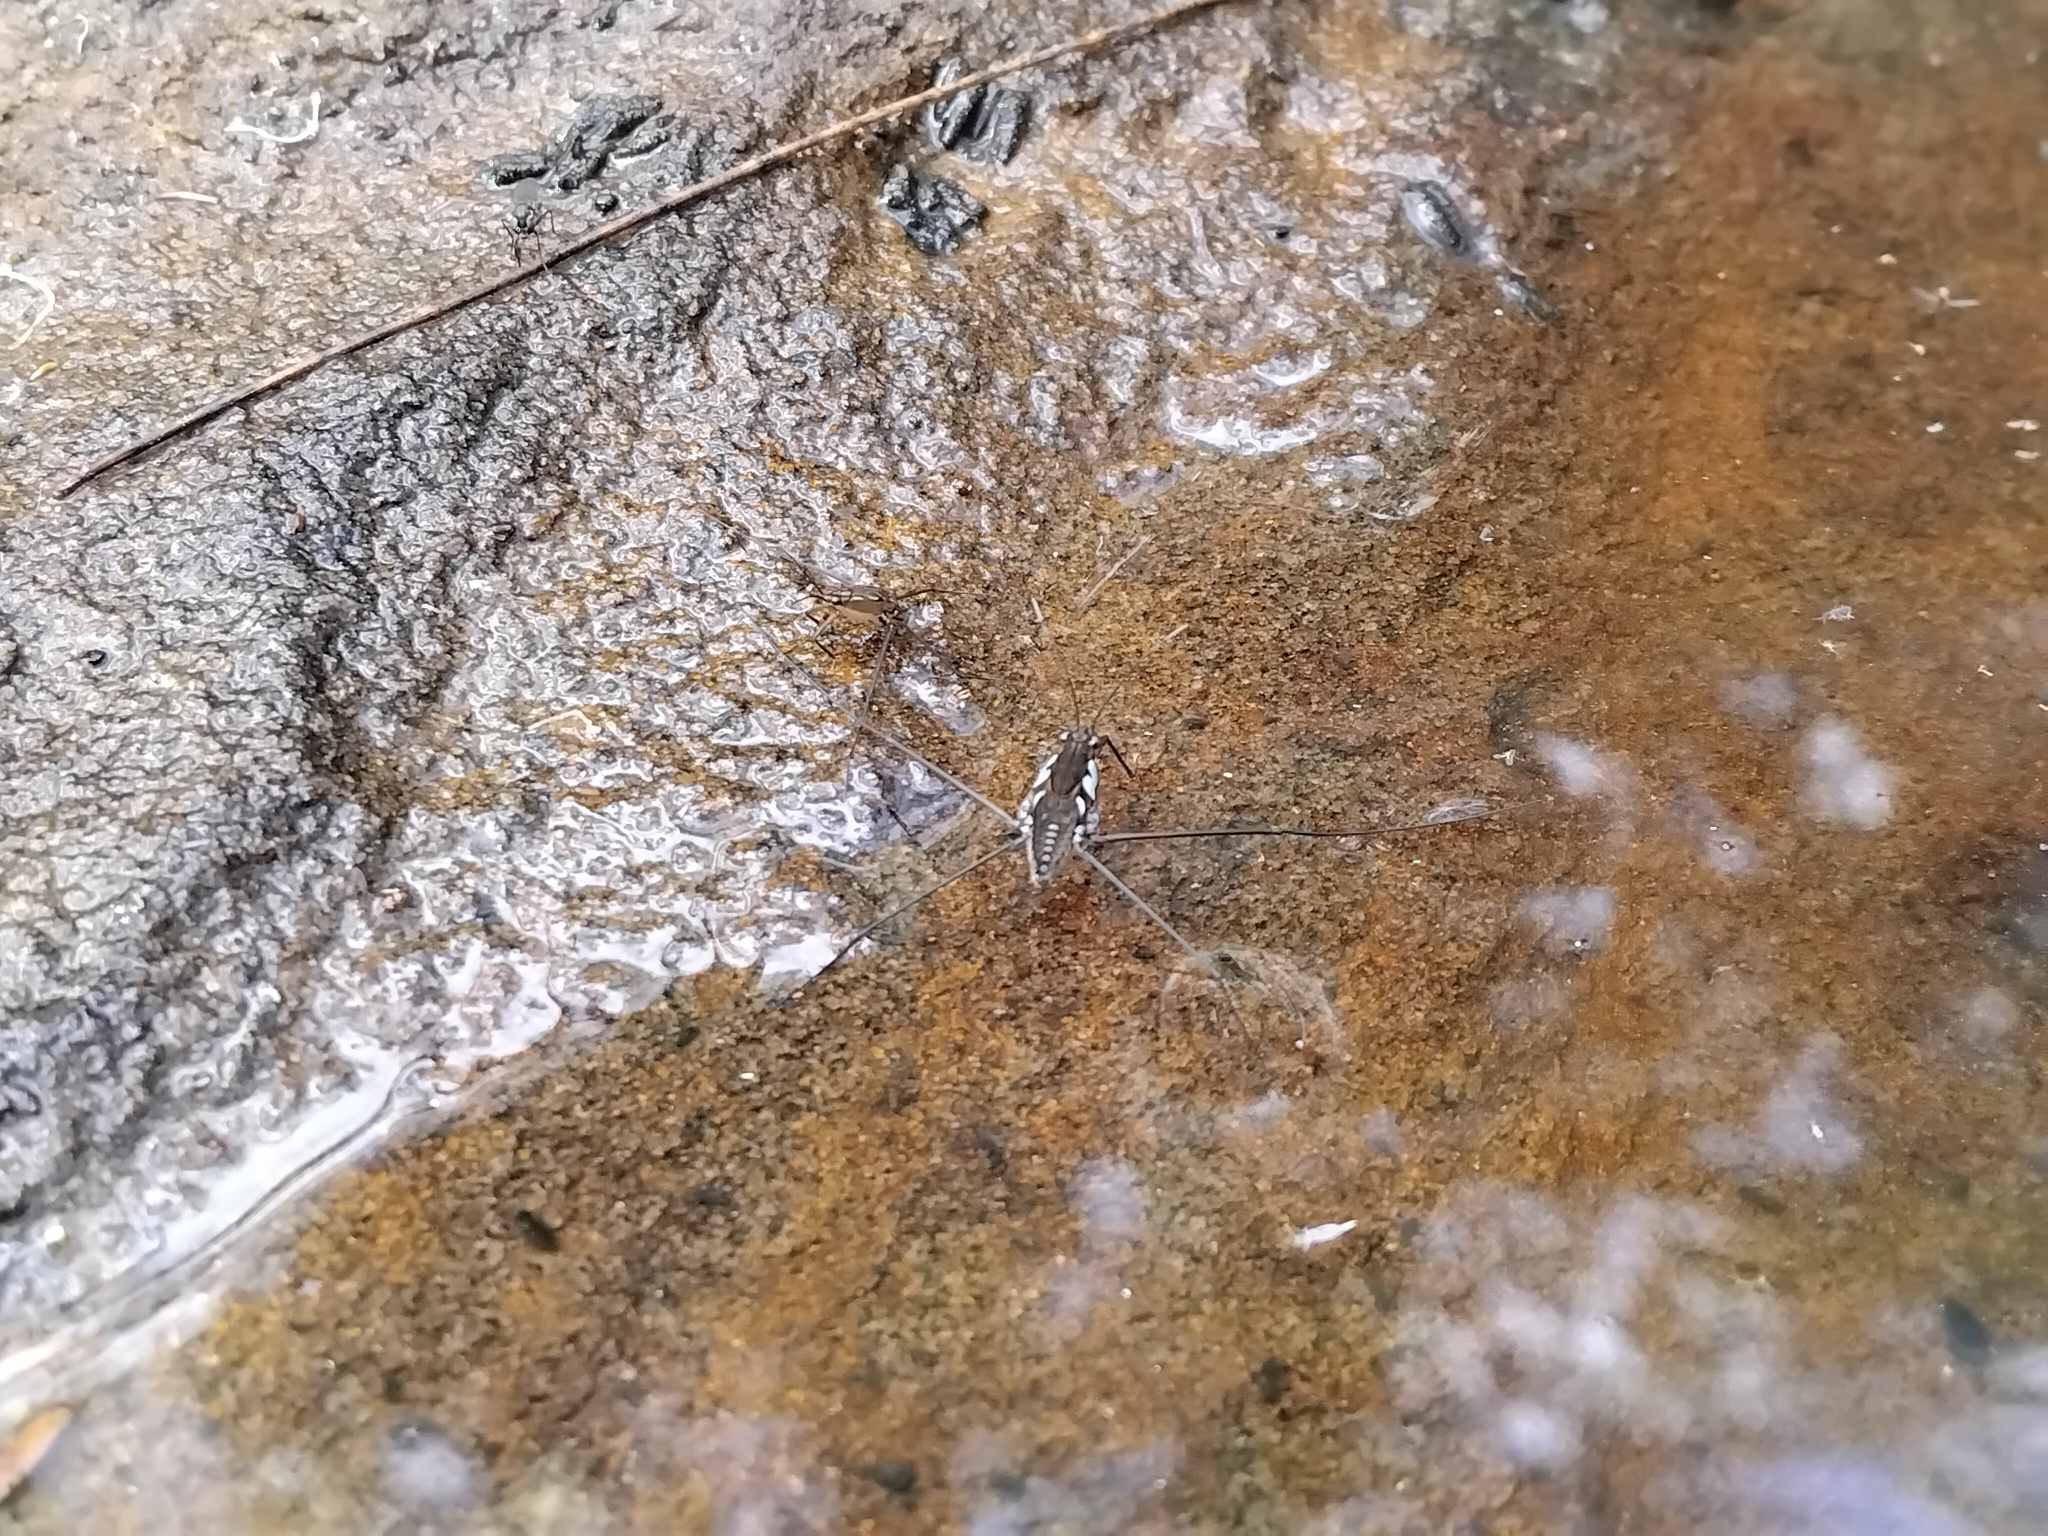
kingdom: Animalia
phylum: Arthropoda
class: Insecta
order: Hemiptera
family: Gerridae
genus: Tenagogerris
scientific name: Tenagogerris euphrosyne
